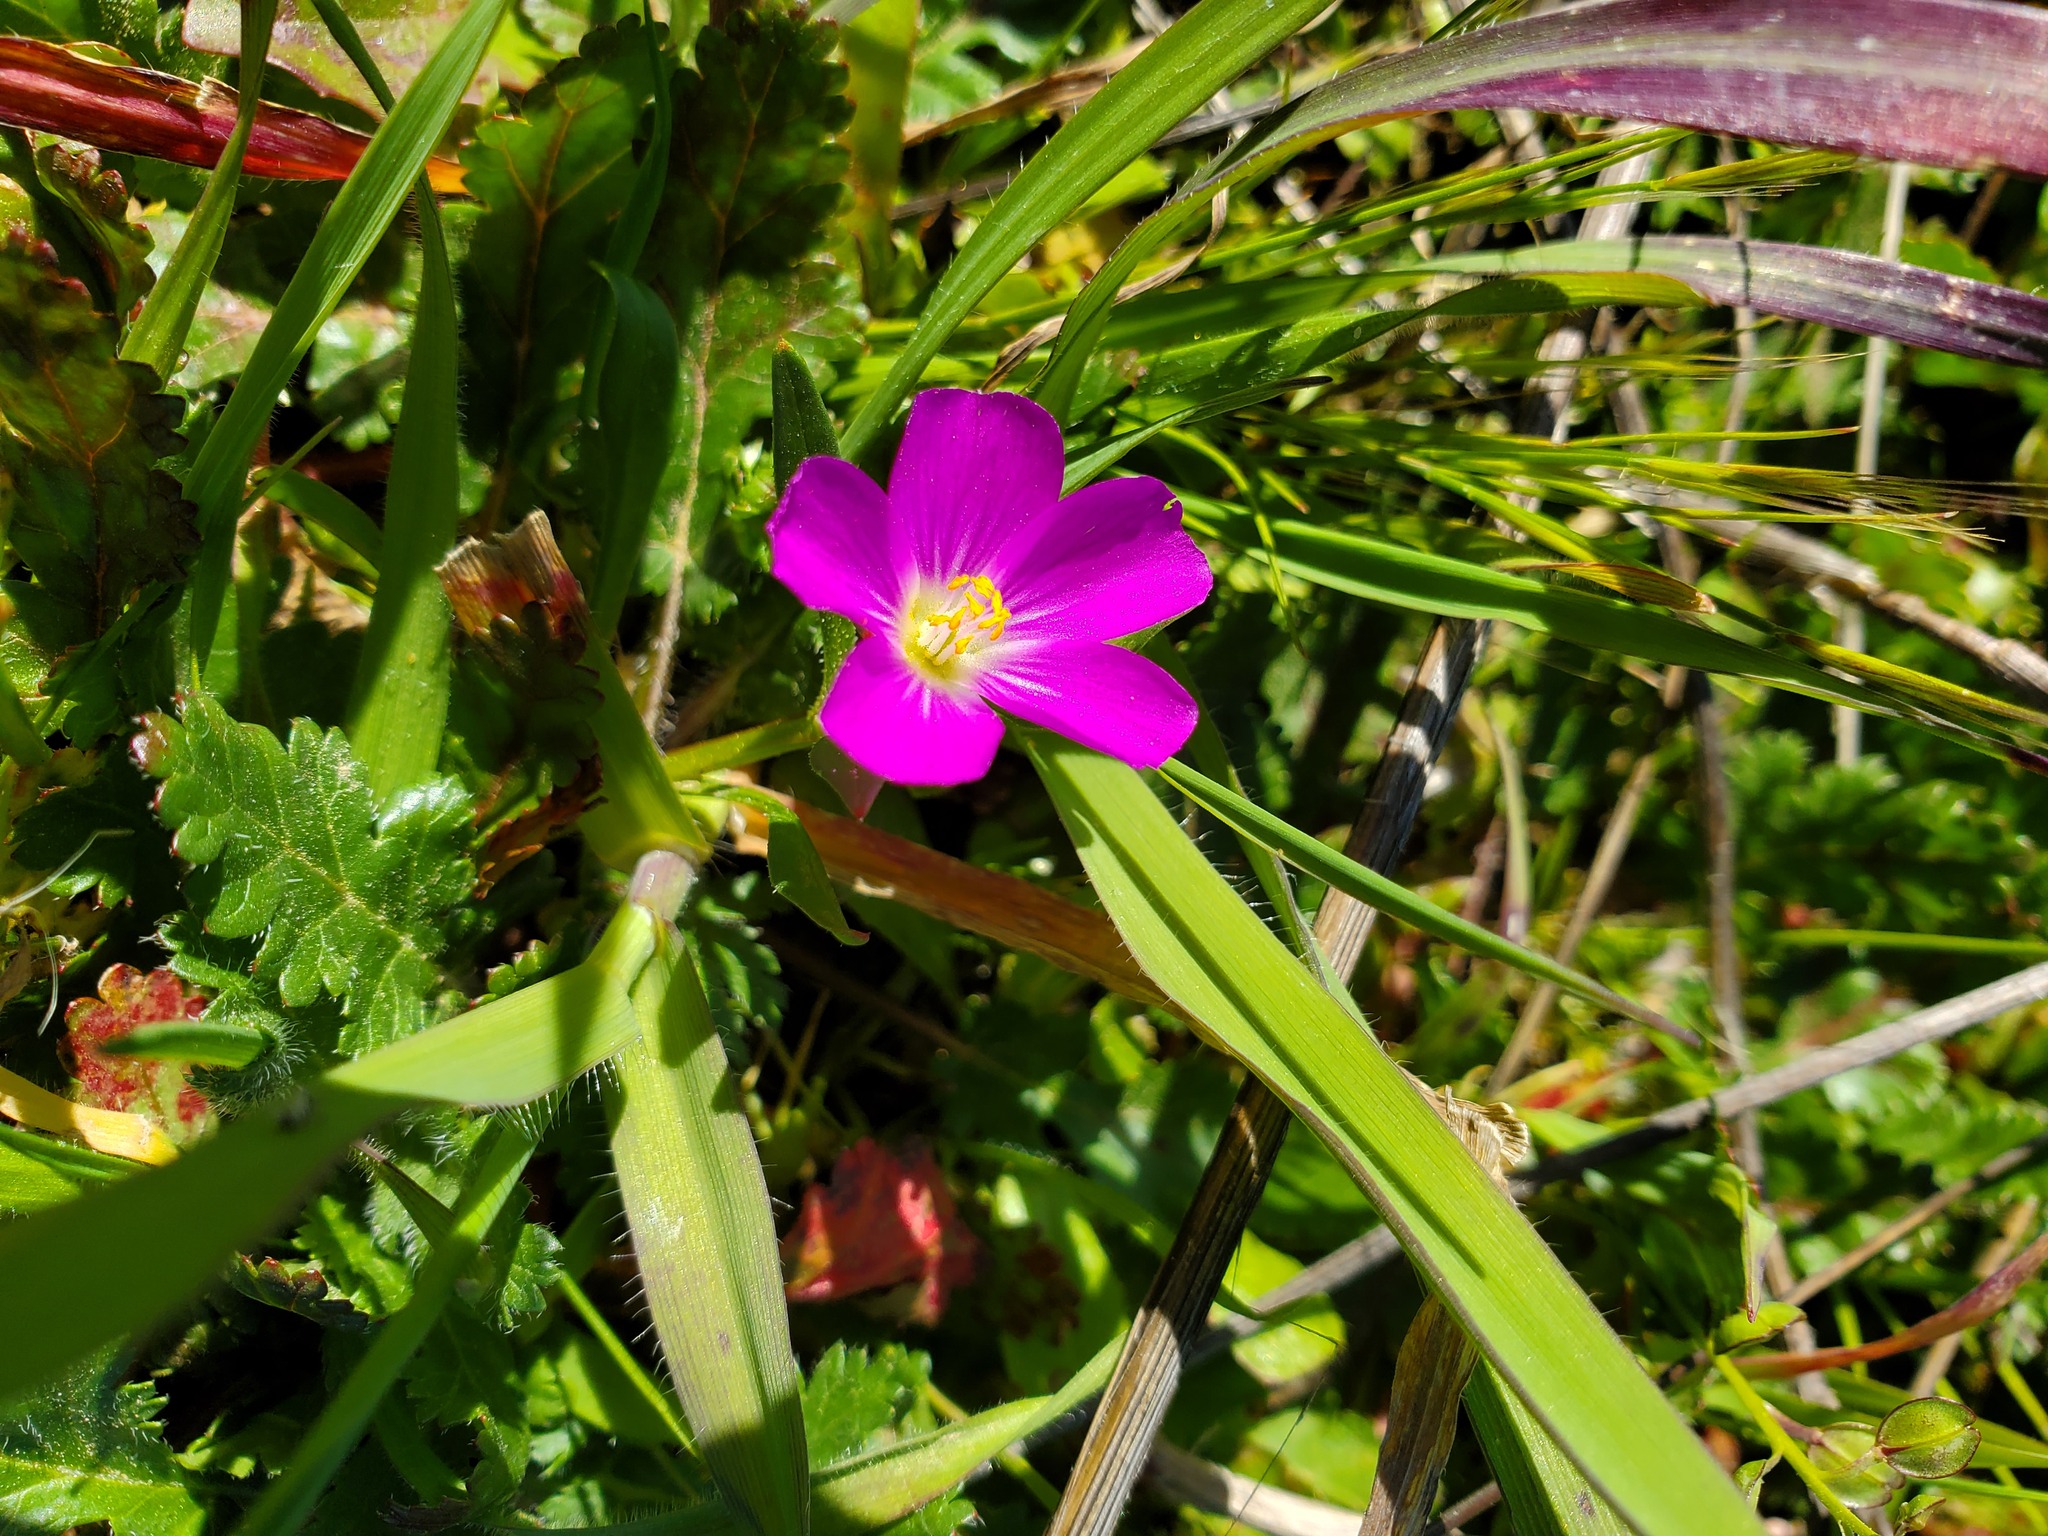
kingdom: Plantae
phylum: Tracheophyta
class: Magnoliopsida
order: Caryophyllales
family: Montiaceae
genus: Calandrinia
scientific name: Calandrinia menziesii
